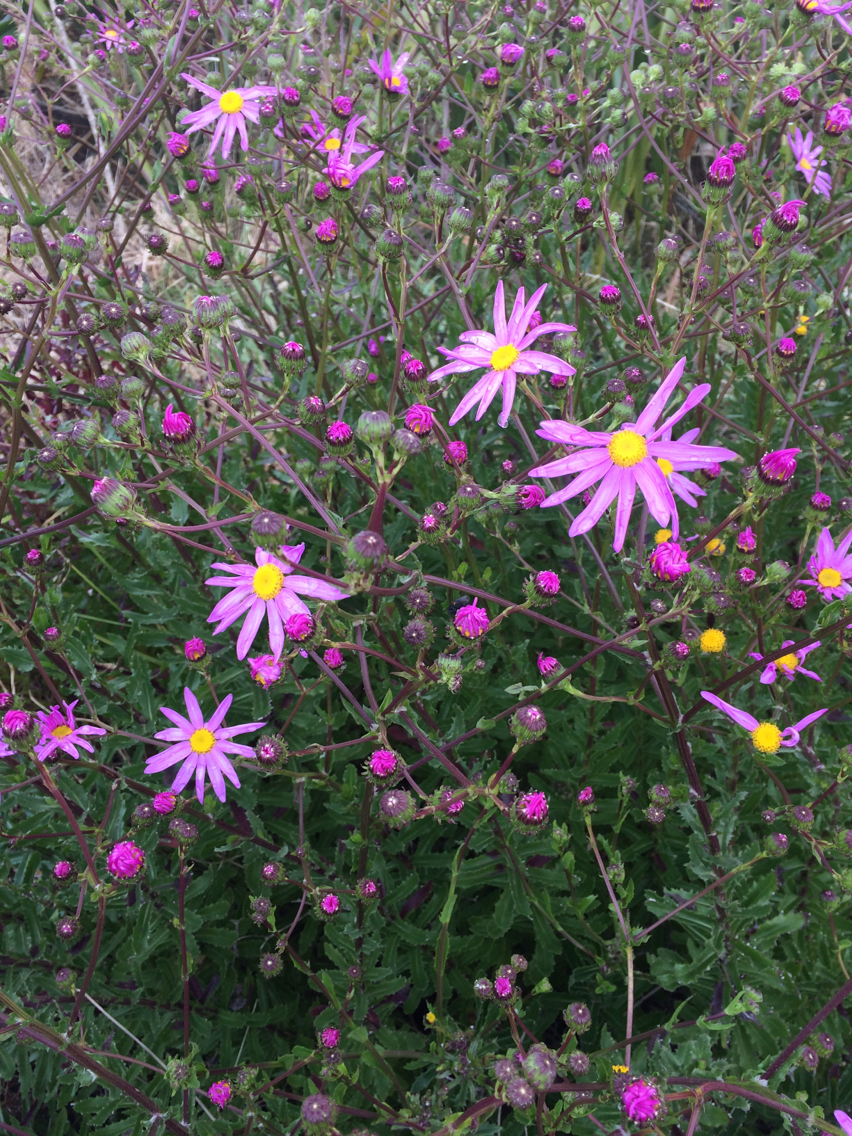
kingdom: Plantae
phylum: Tracheophyta
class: Magnoliopsida
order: Asterales
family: Asteraceae
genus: Senecio
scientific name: Senecio glastifolius
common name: Woad-leaved ragwort
